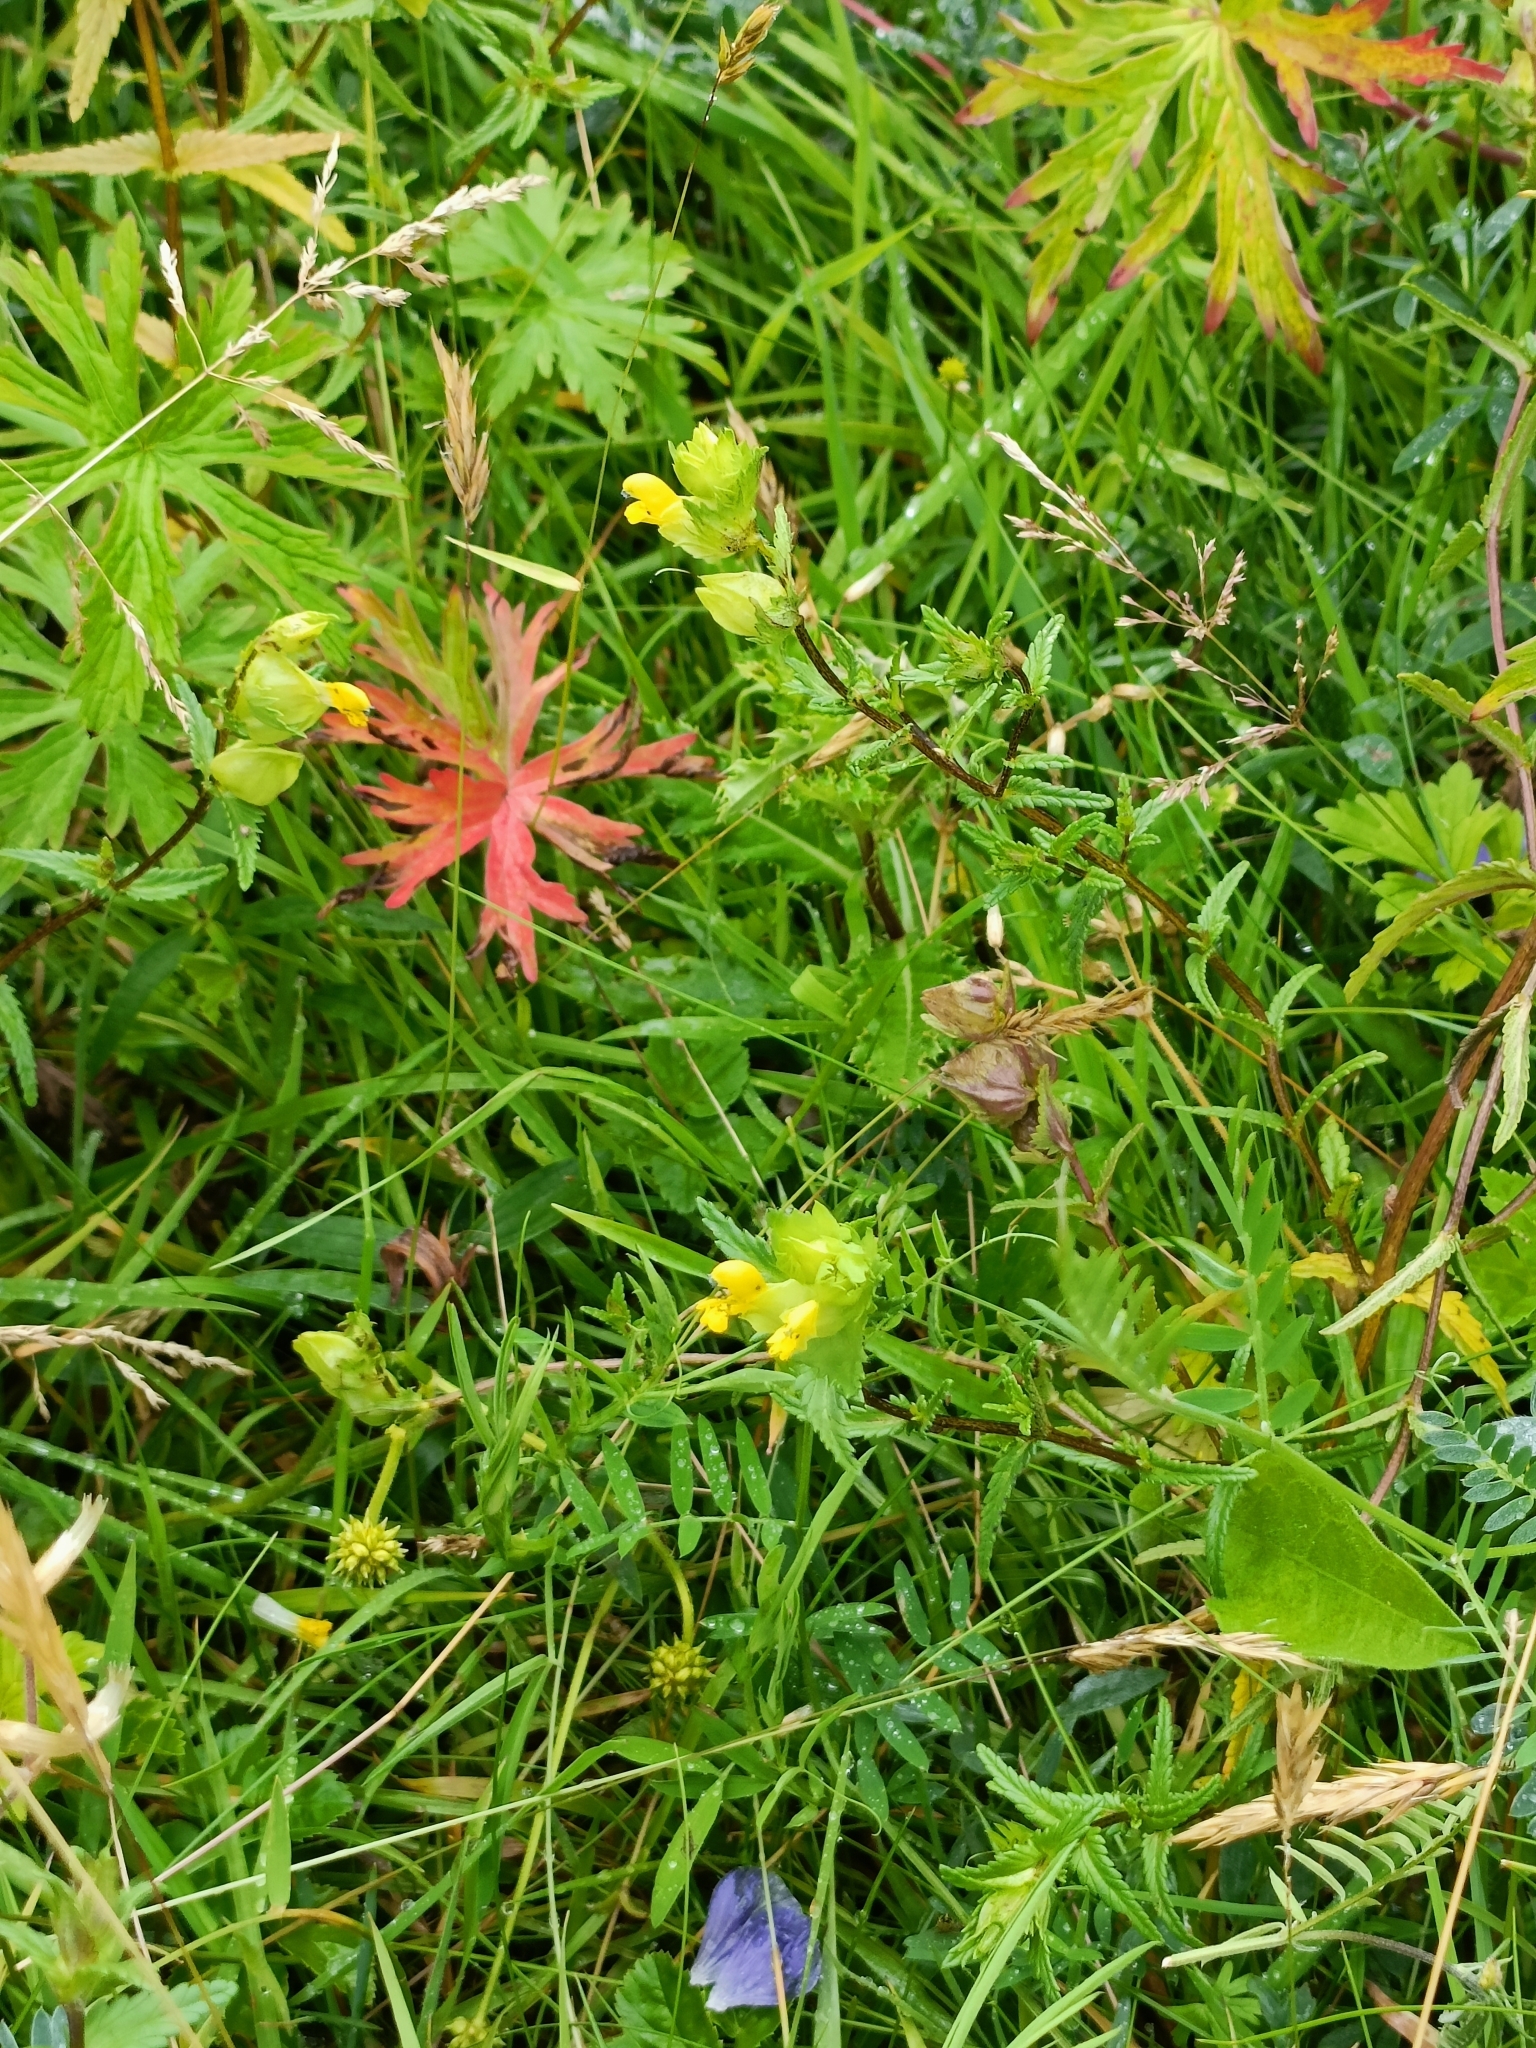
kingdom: Plantae
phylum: Tracheophyta
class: Magnoliopsida
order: Lamiales
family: Orobanchaceae
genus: Rhinanthus
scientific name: Rhinanthus minor
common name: Yellow-rattle
